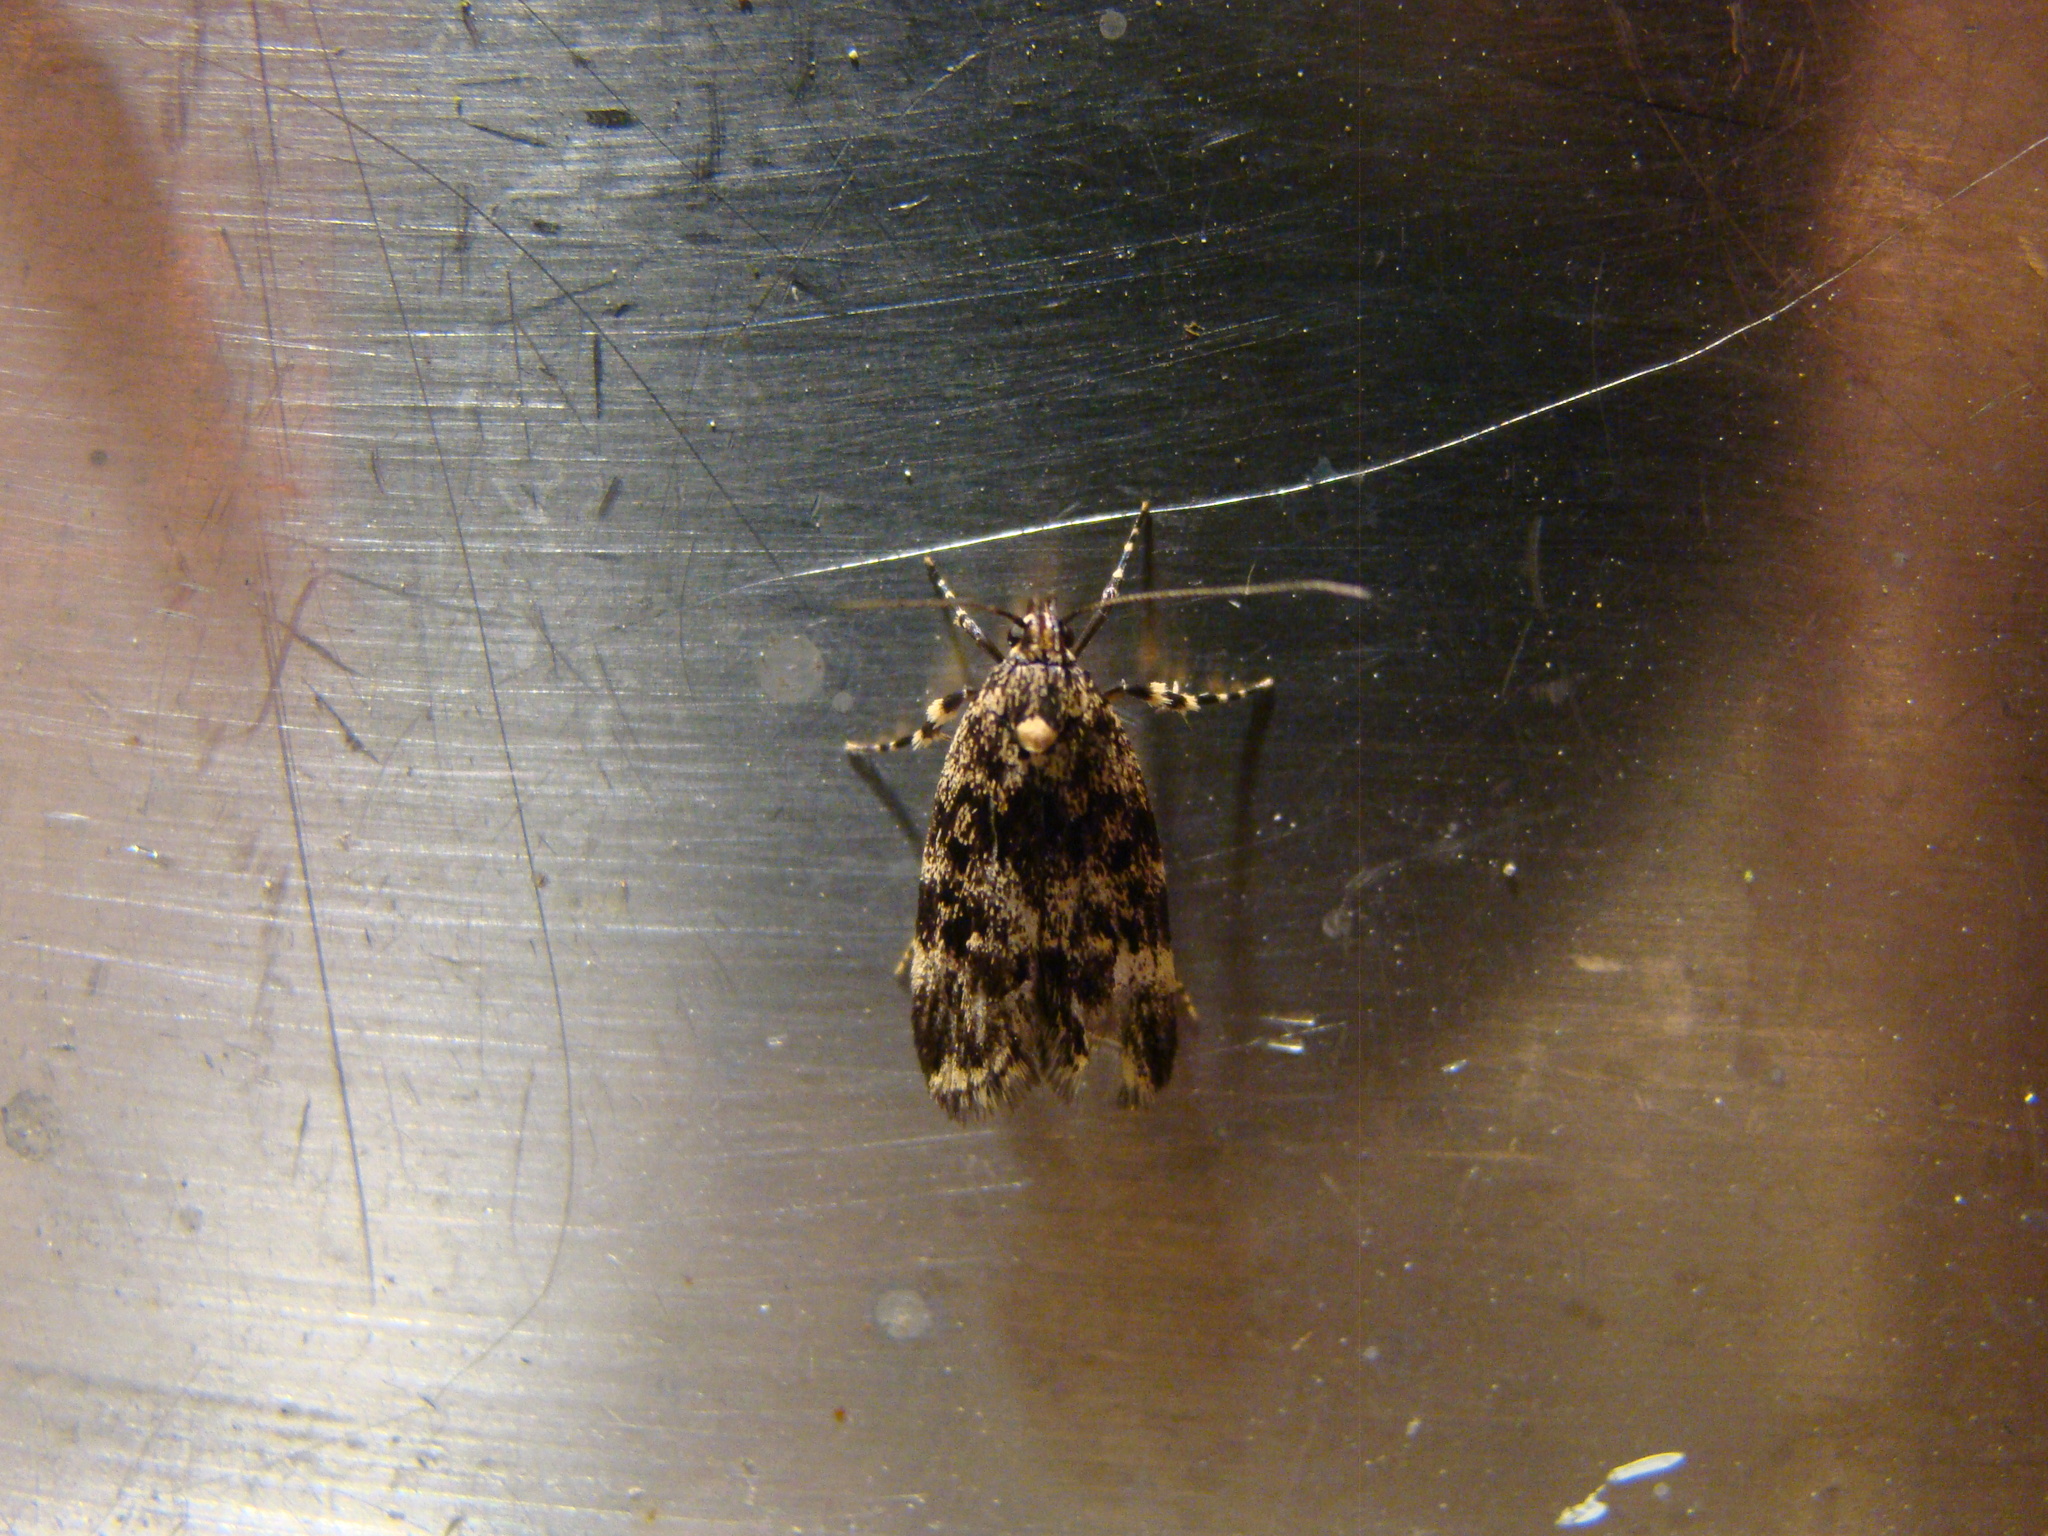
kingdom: Animalia
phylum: Arthropoda
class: Insecta
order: Lepidoptera
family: Oecophoridae
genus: Barea
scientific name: Barea codrella
